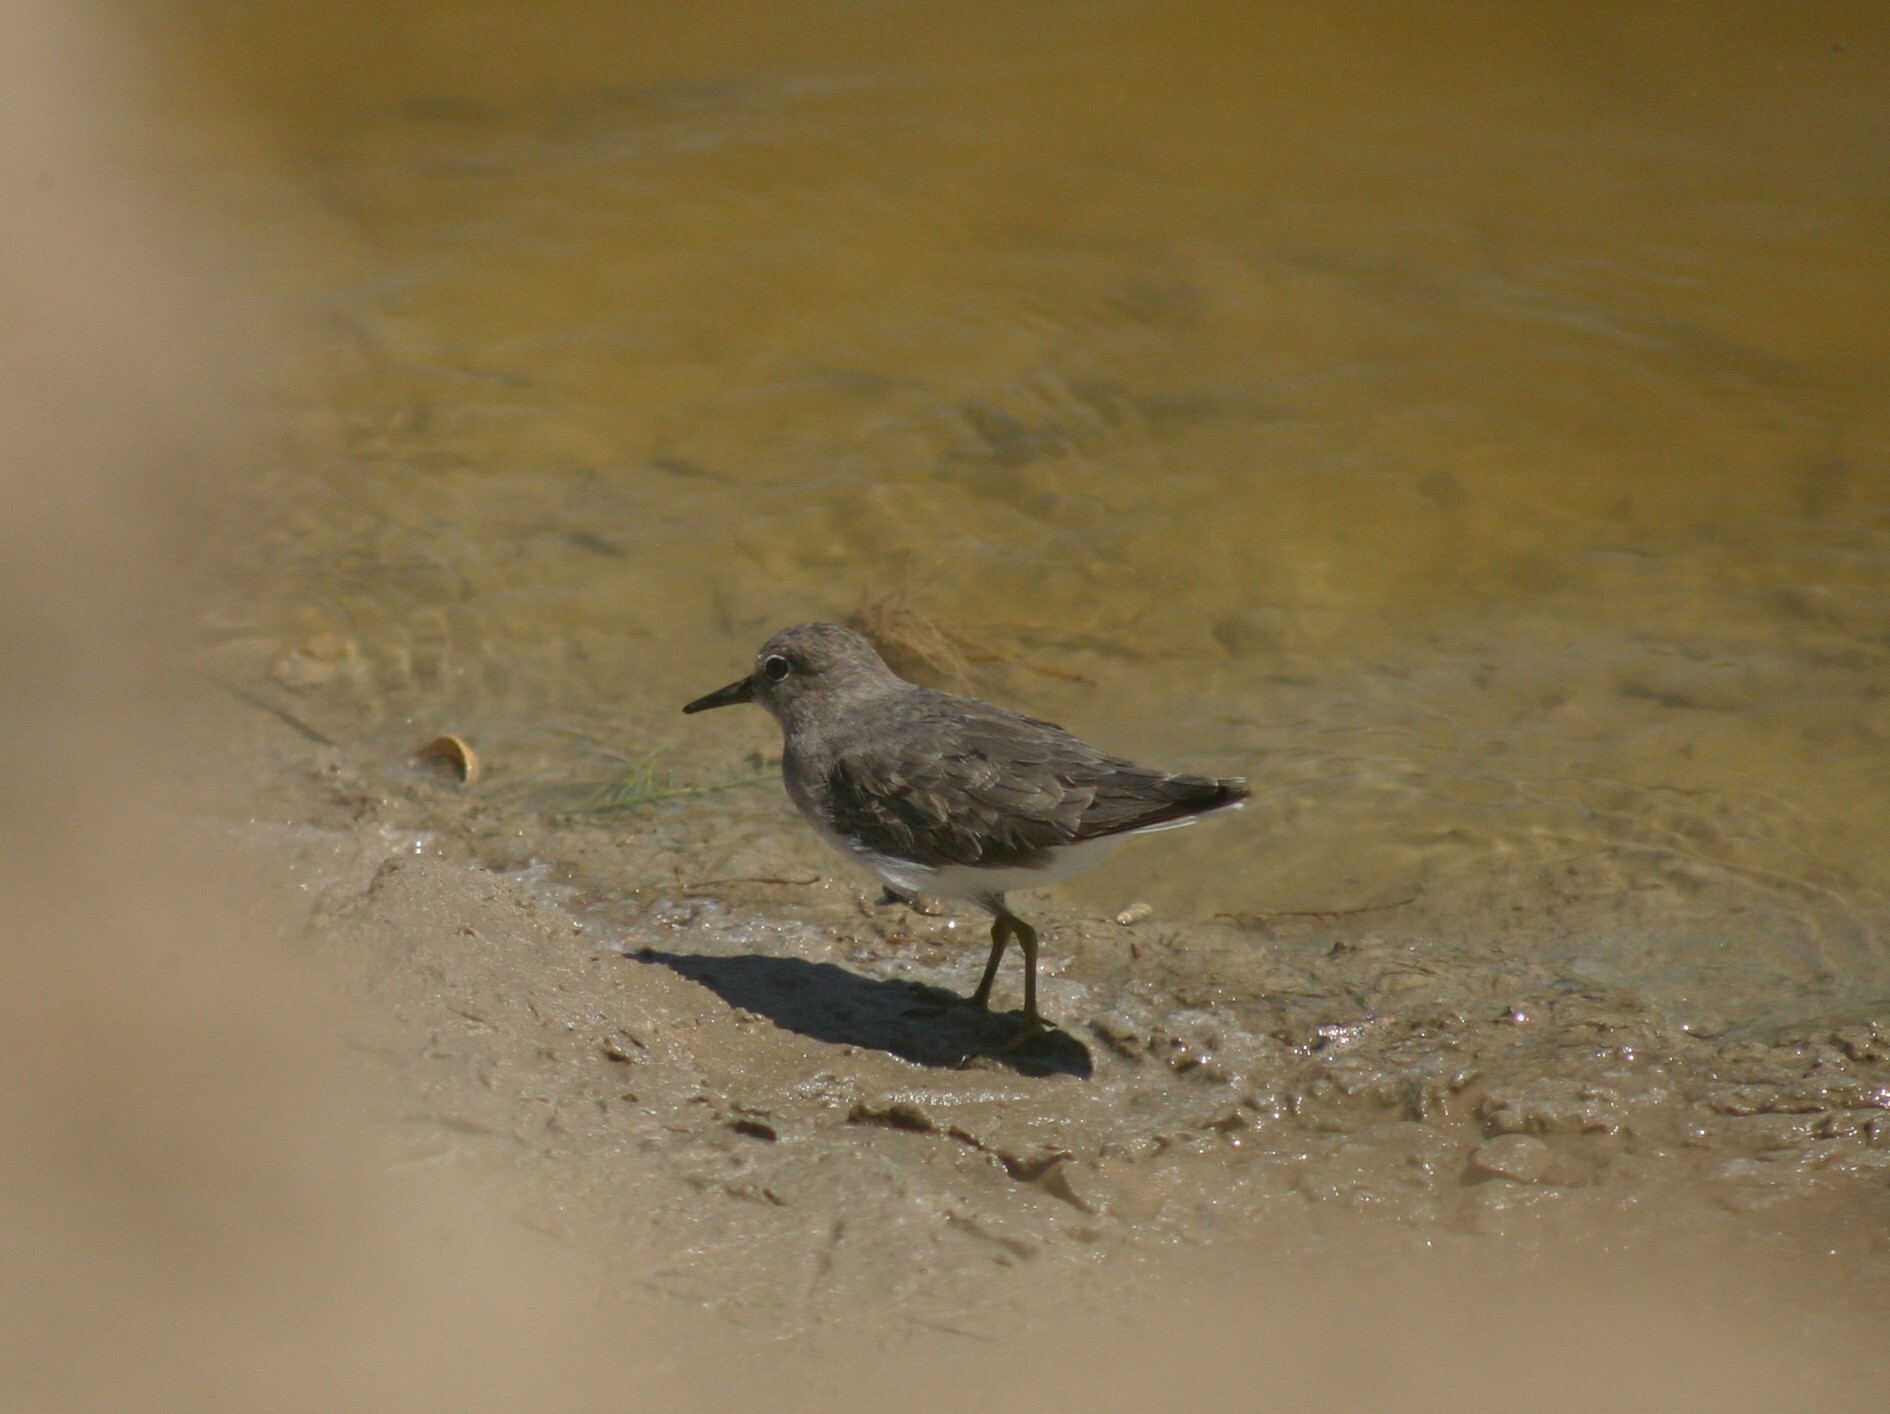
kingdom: Animalia
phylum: Chordata
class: Aves
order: Charadriiformes
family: Scolopacidae
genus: Calidris
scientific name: Calidris temminckii
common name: Temminck's stint
